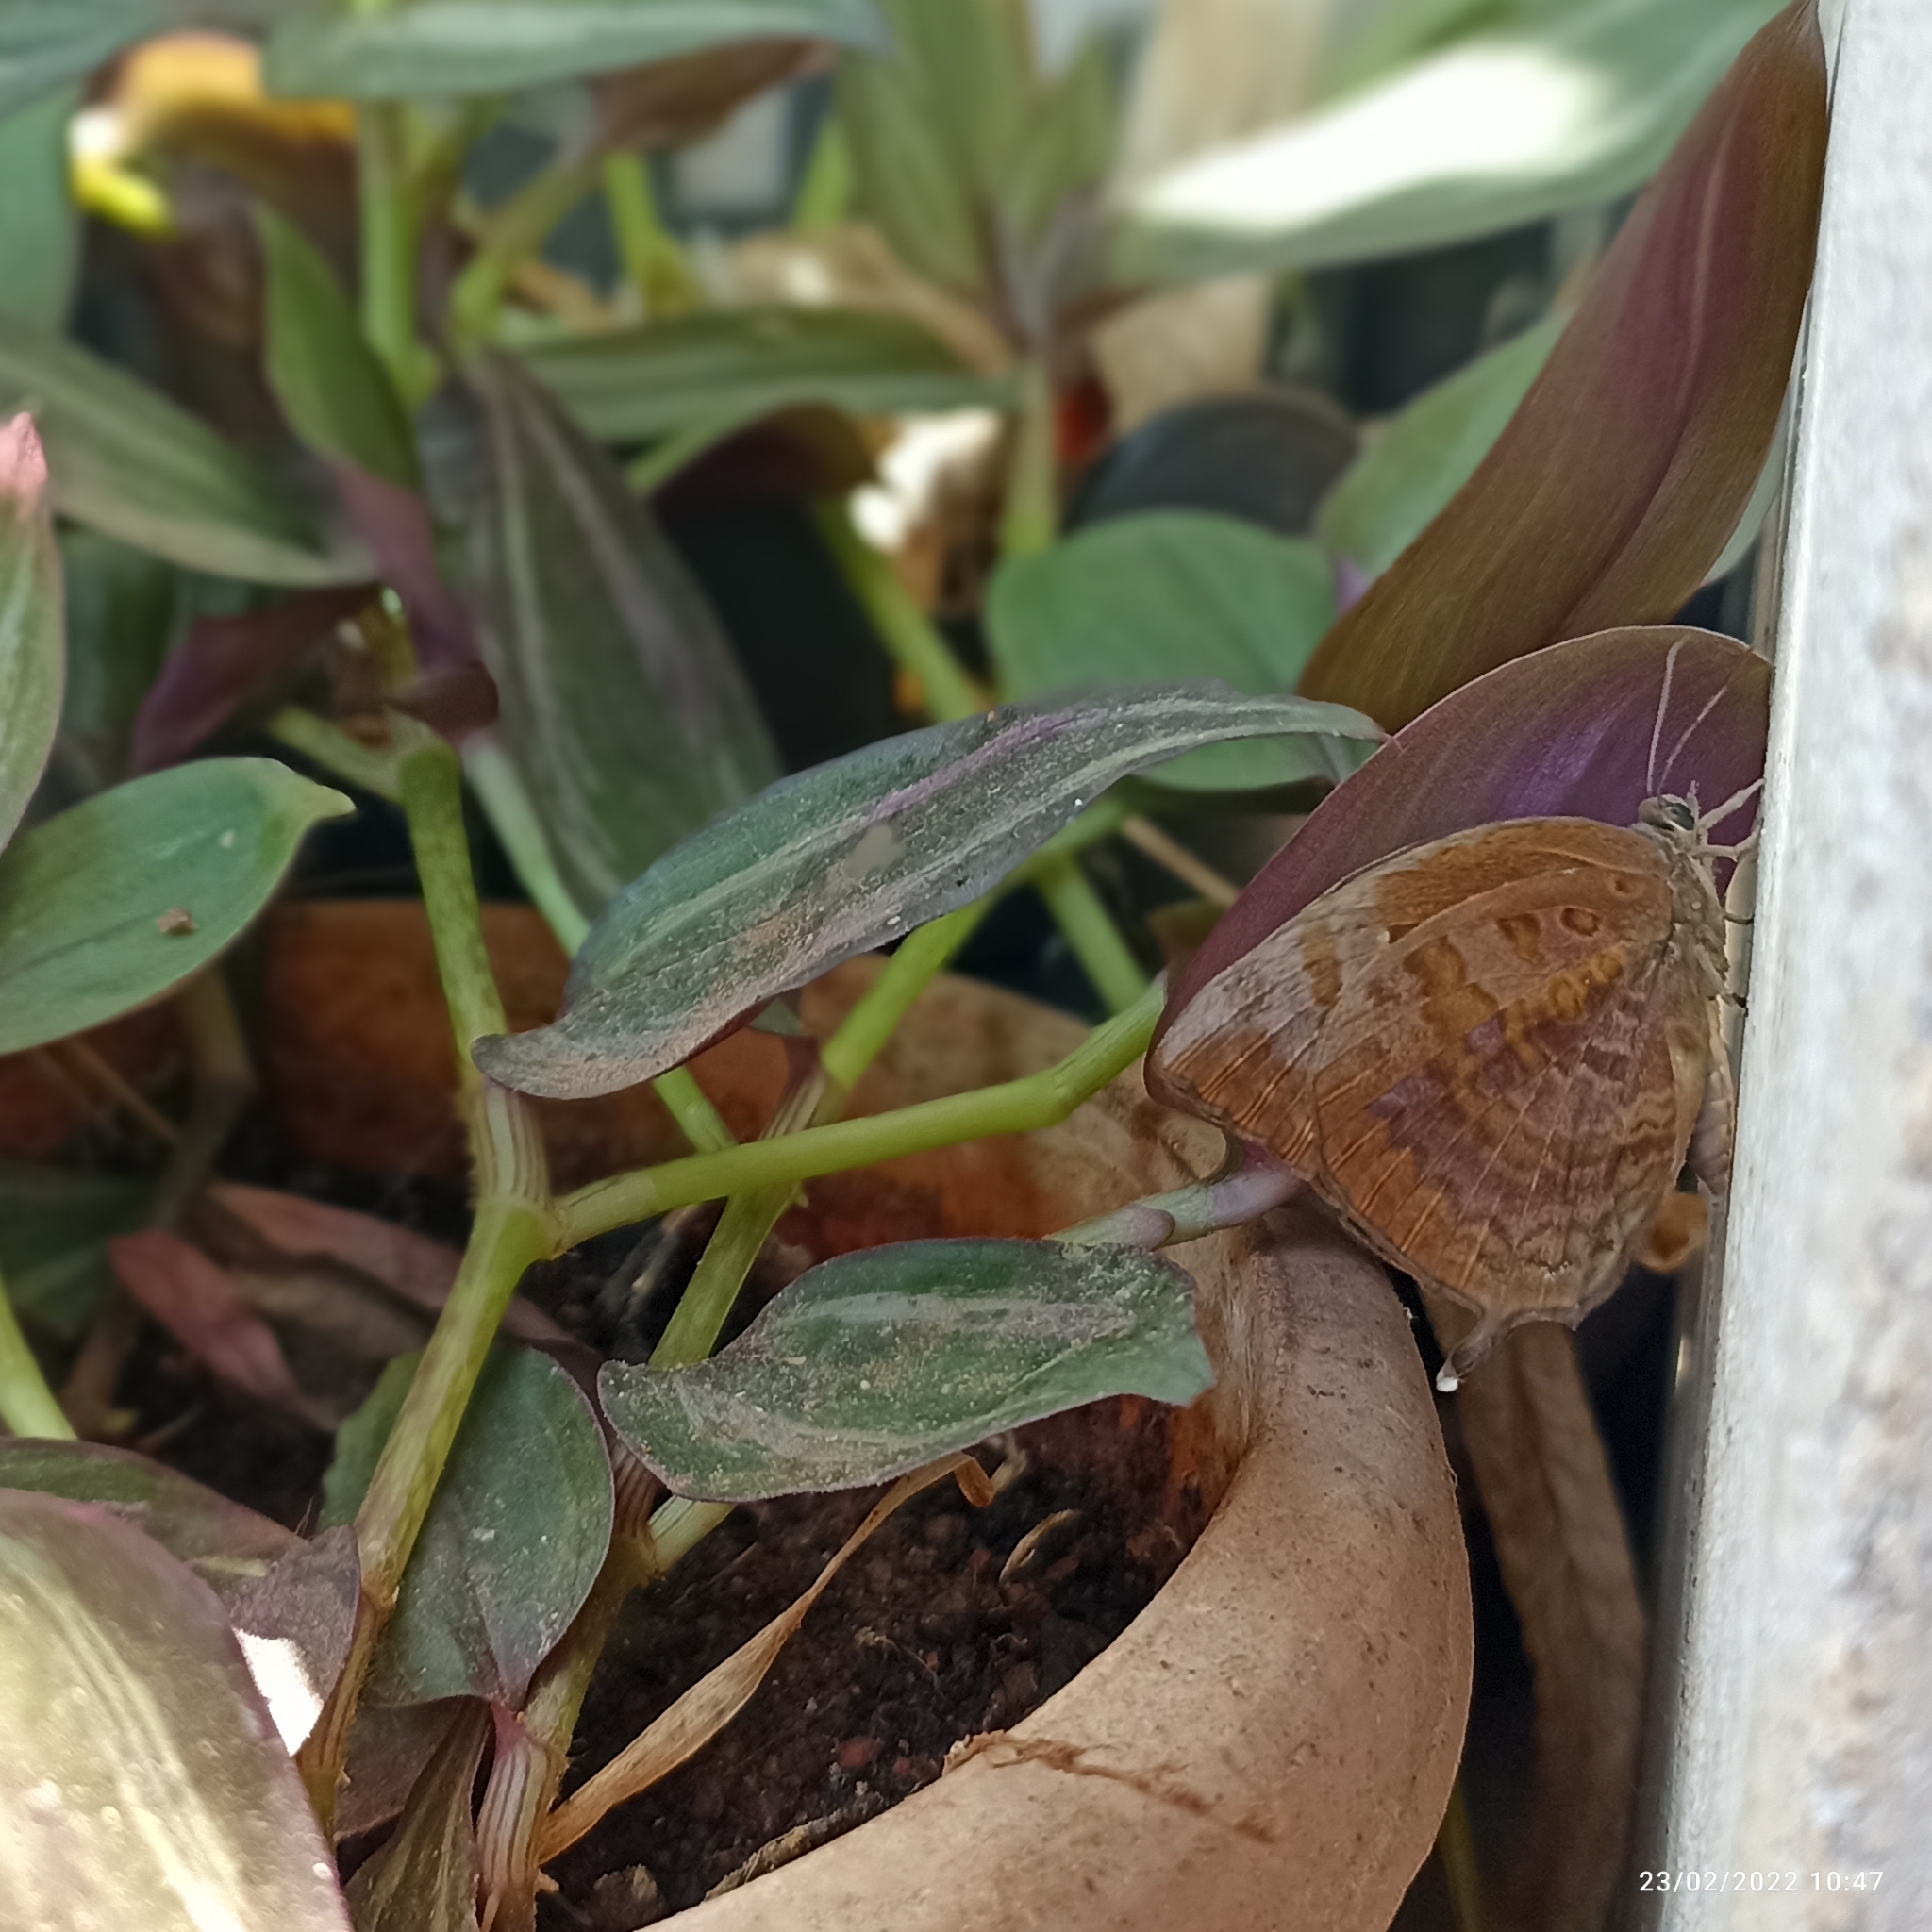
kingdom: Animalia
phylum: Arthropoda
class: Insecta
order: Lepidoptera
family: Lycaenidae
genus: Arhopala
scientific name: Arhopala centaurus
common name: Dull oak-blue
